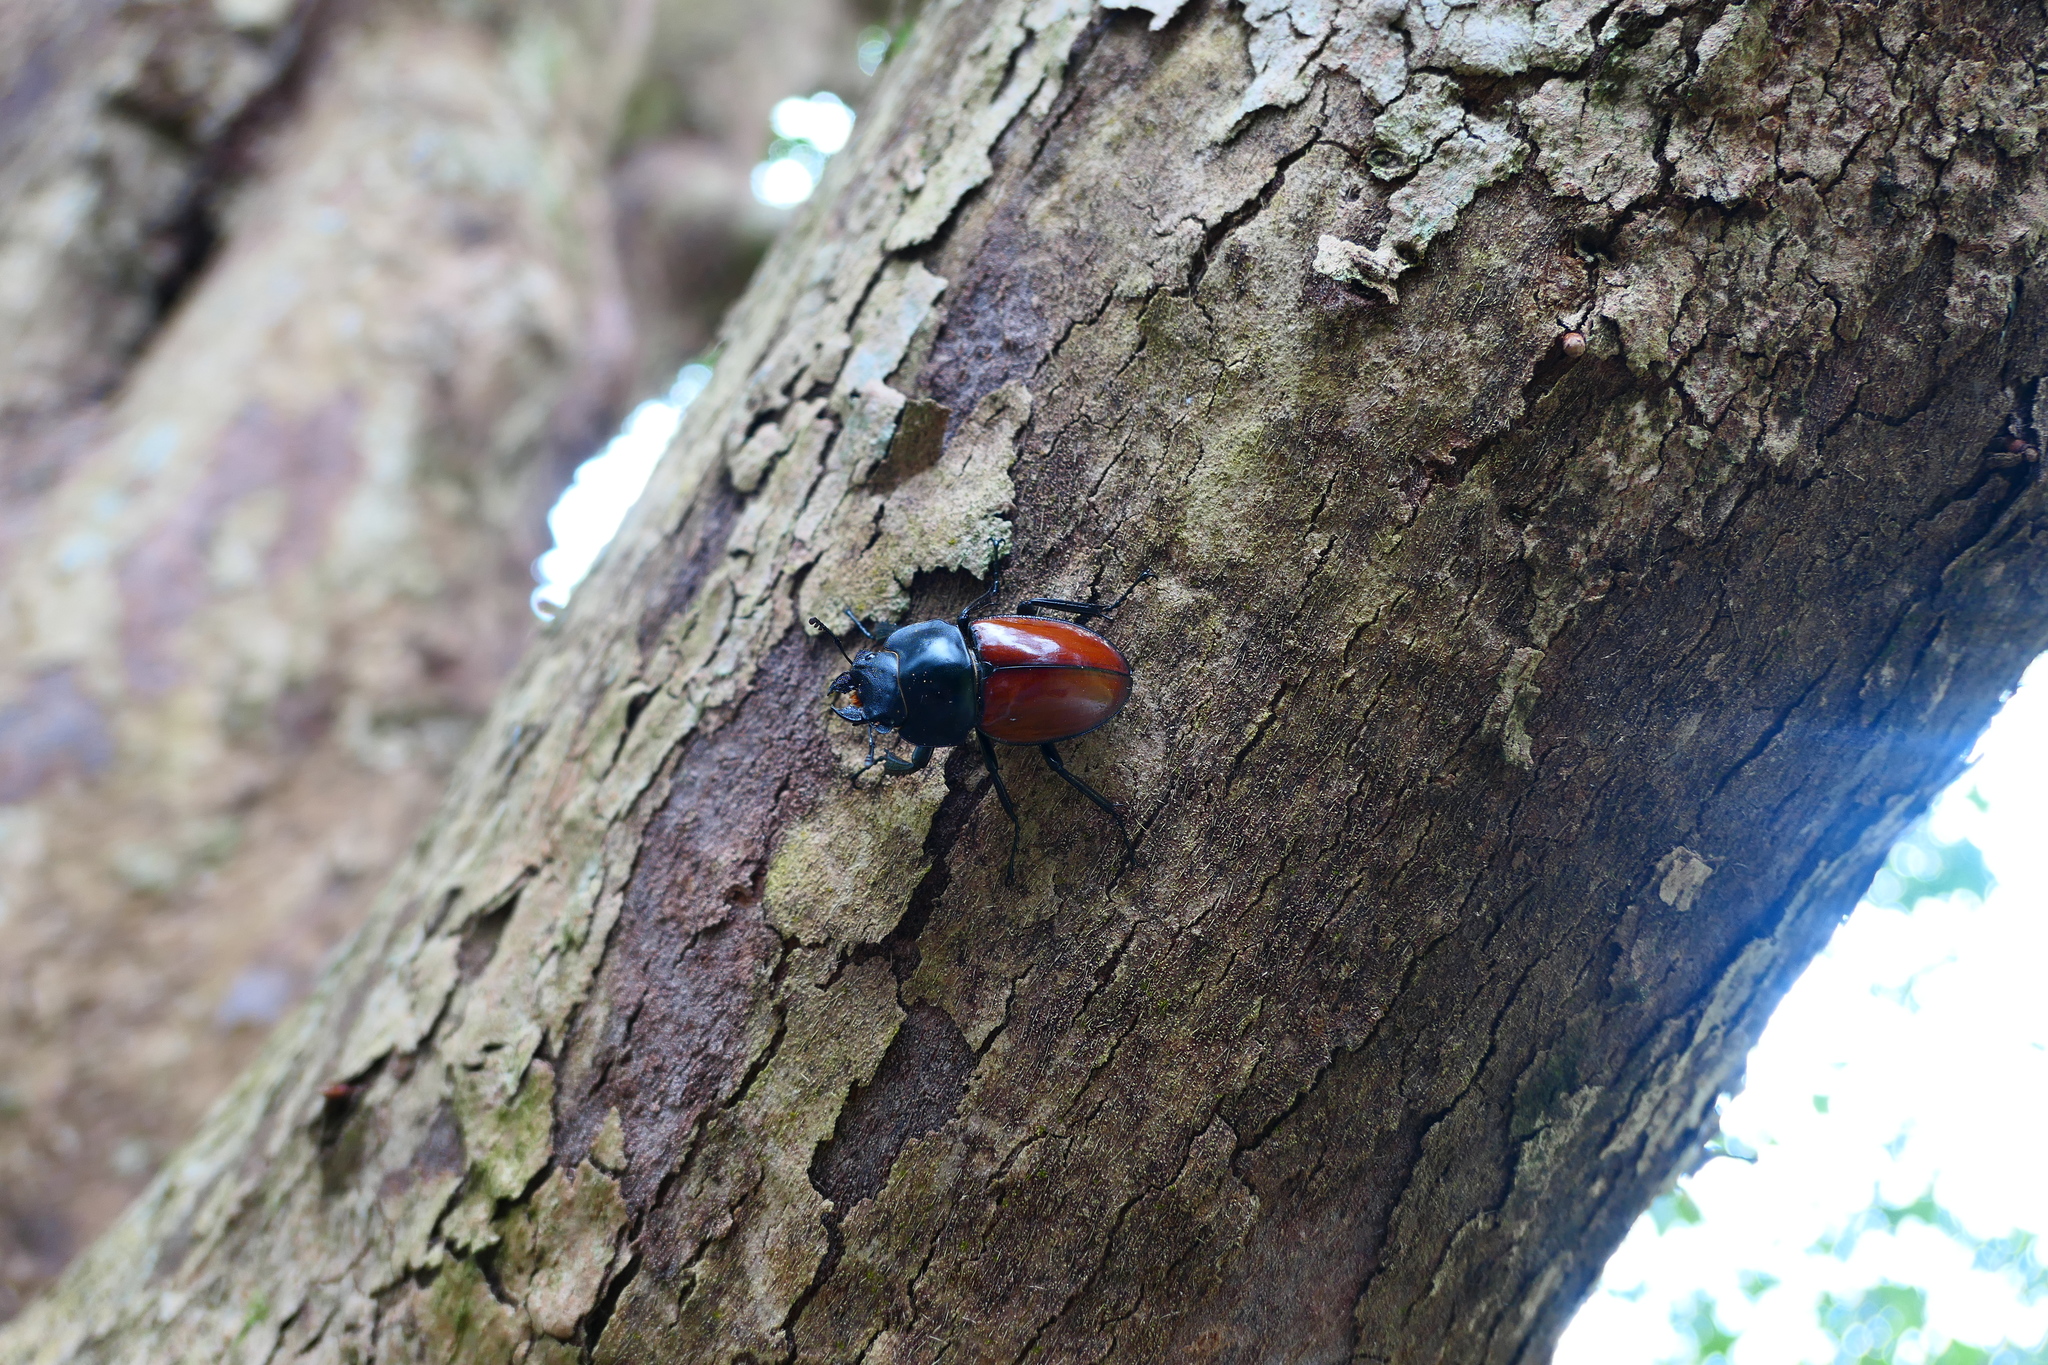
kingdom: Animalia
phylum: Arthropoda
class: Insecta
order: Coleoptera
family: Lucanidae
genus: Neolucanus
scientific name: Neolucanus swinhoei
